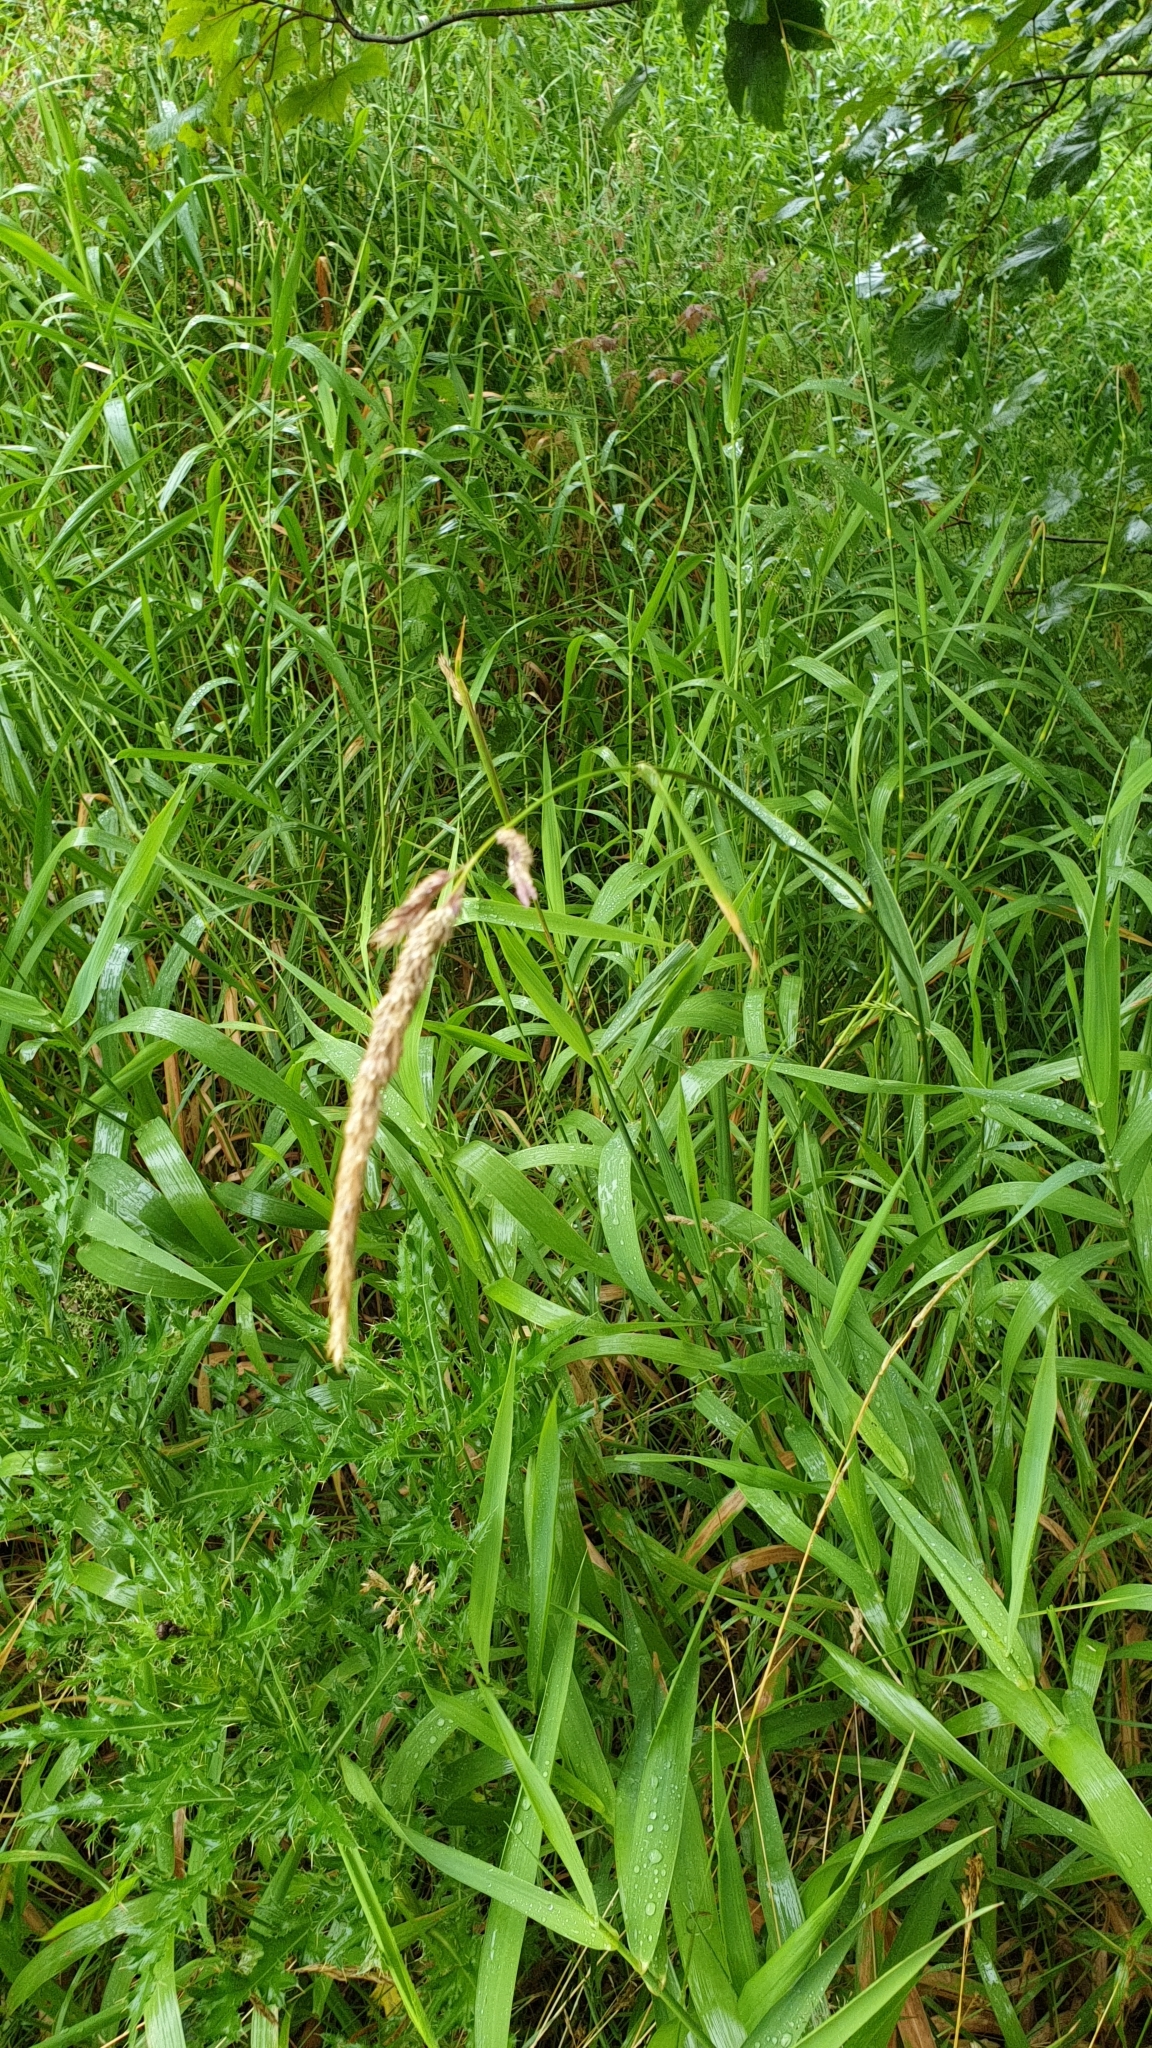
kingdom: Plantae
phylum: Tracheophyta
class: Liliopsida
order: Poales
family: Poaceae
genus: Phalaris
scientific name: Phalaris arundinacea
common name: Reed canary-grass
